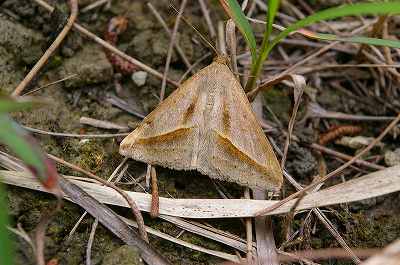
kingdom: Animalia
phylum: Arthropoda
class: Insecta
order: Lepidoptera
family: Erebidae
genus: Mocis
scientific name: Mocis frugalis
